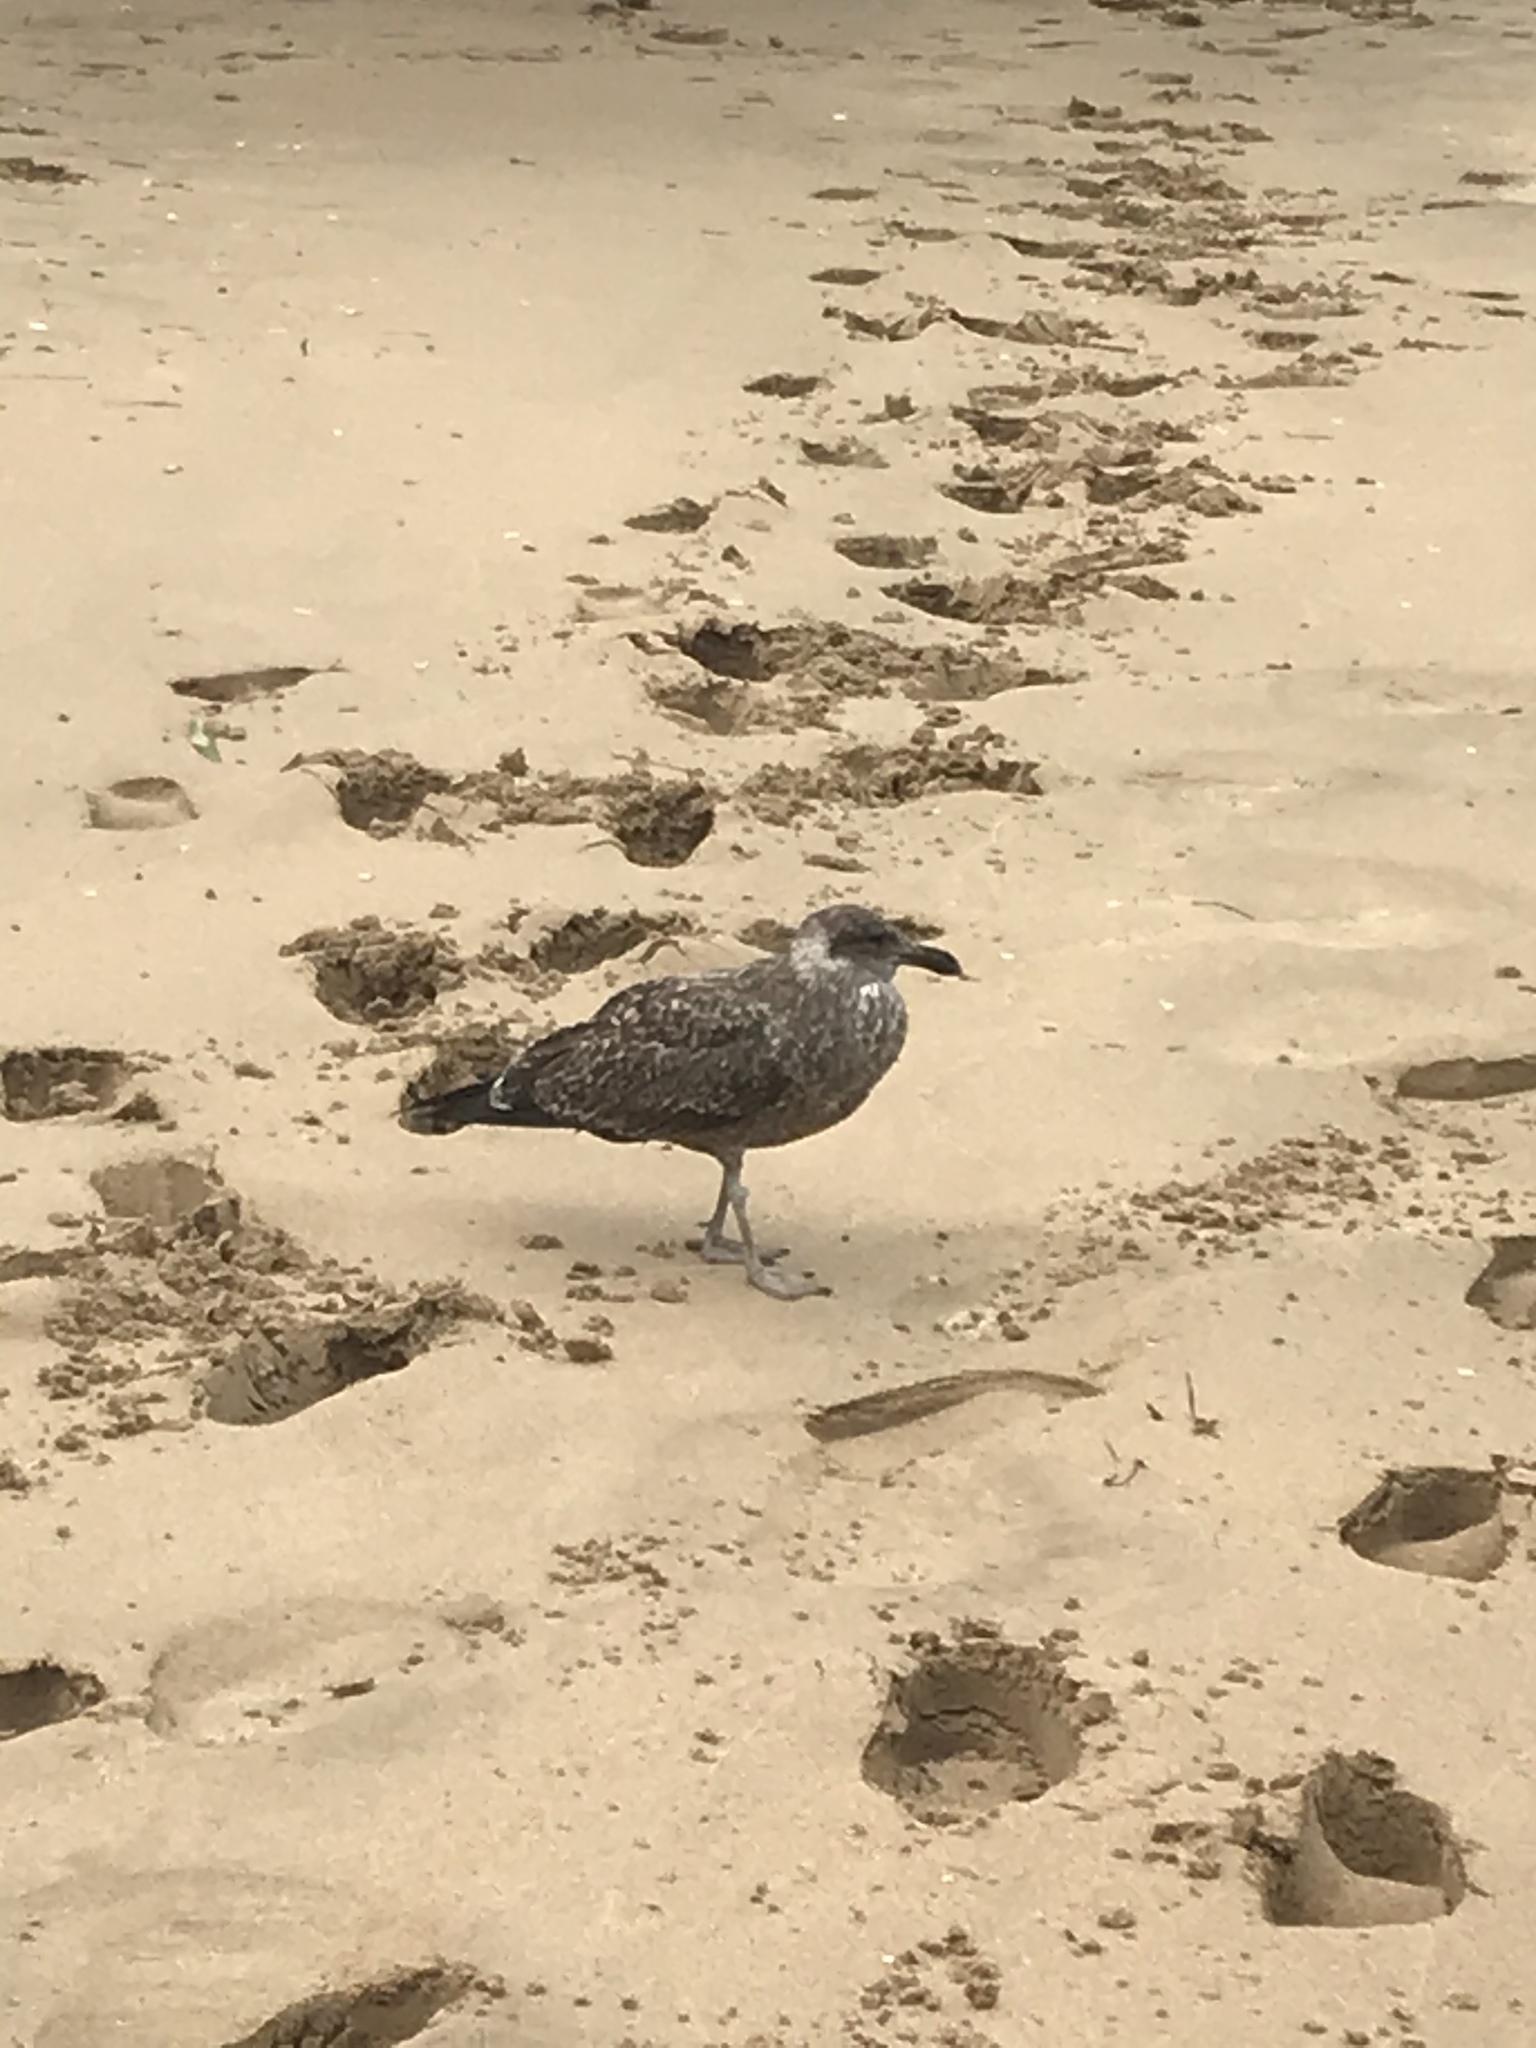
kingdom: Animalia
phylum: Chordata
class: Aves
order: Charadriiformes
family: Laridae
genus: Larus
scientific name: Larus dominicanus
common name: Kelp gull
